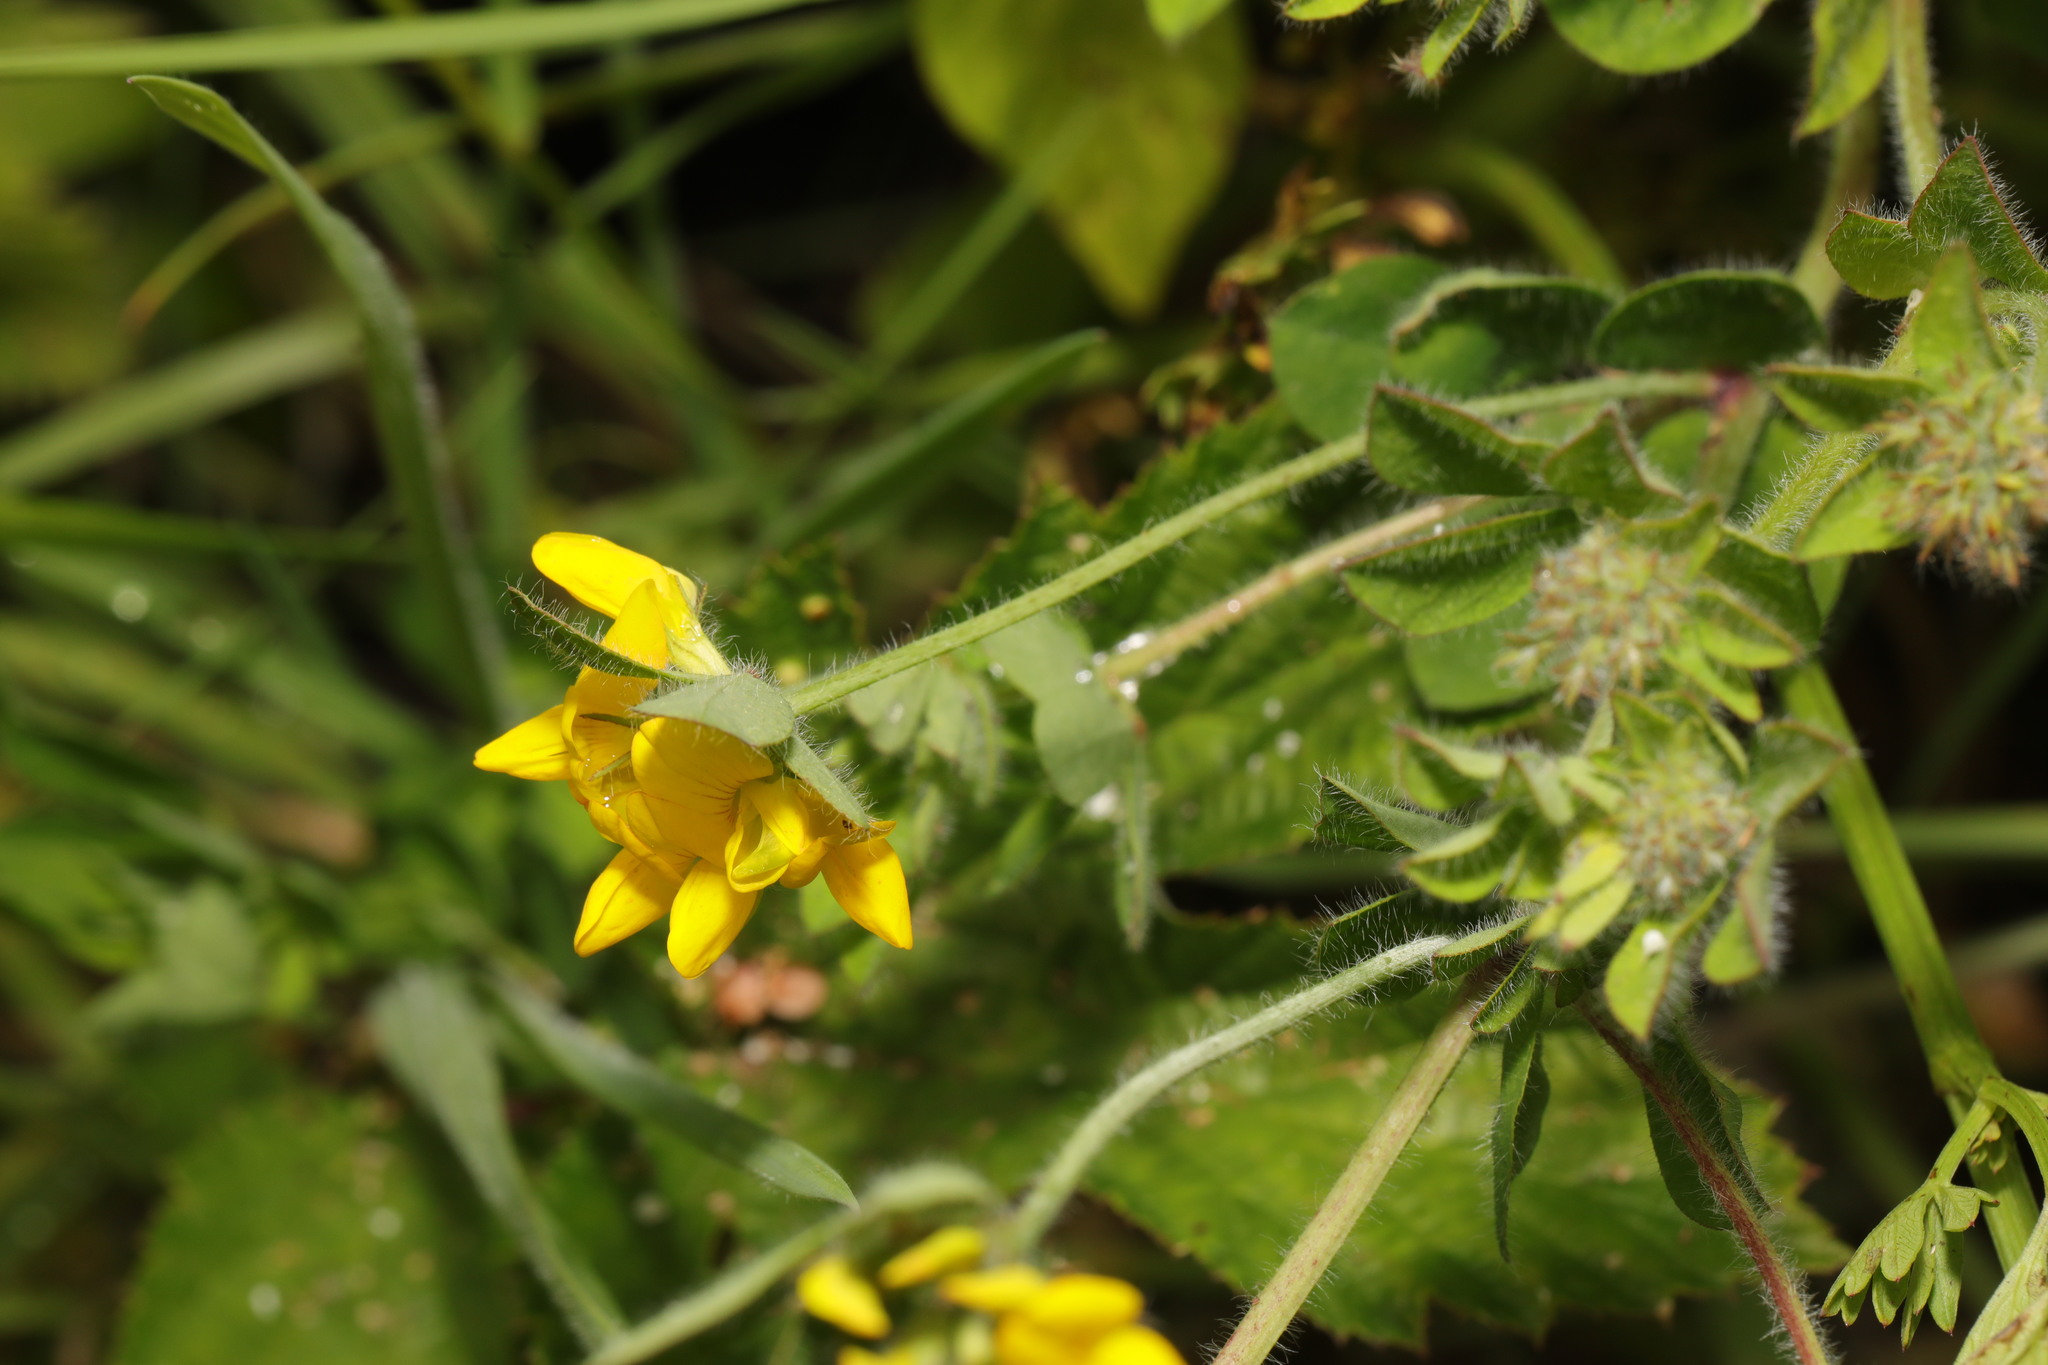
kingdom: Plantae
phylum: Tracheophyta
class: Magnoliopsida
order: Fabales
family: Fabaceae
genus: Lotus
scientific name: Lotus pedunculatus
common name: Greater birdsfoot-trefoil
